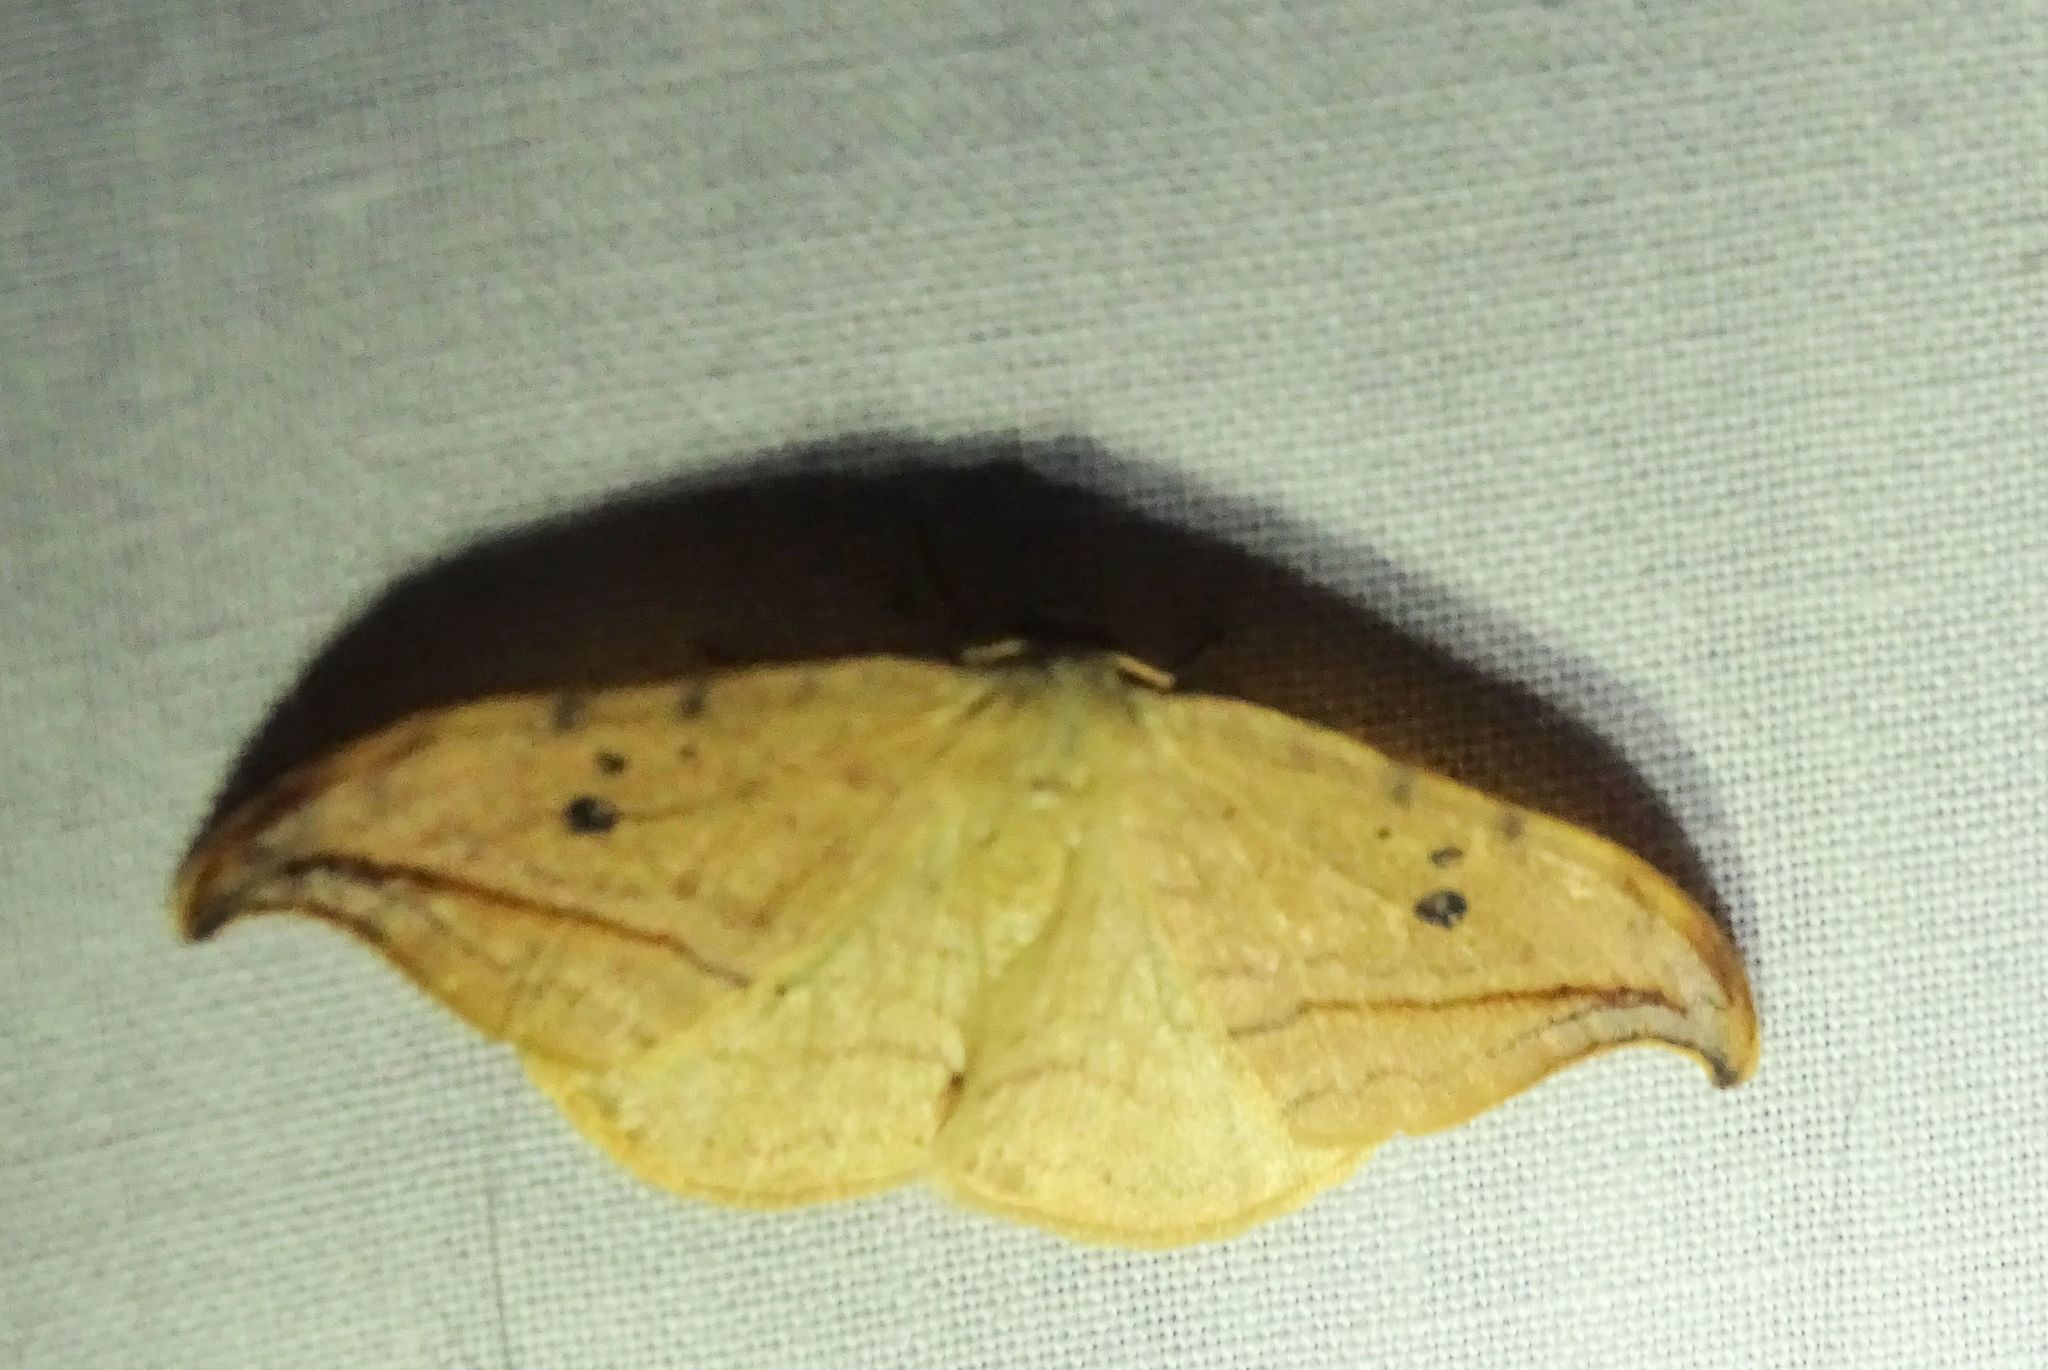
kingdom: Animalia
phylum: Arthropoda
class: Insecta
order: Lepidoptera
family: Drepanidae
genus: Drepana
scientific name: Drepana arcuata
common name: Arched hooktip moth
